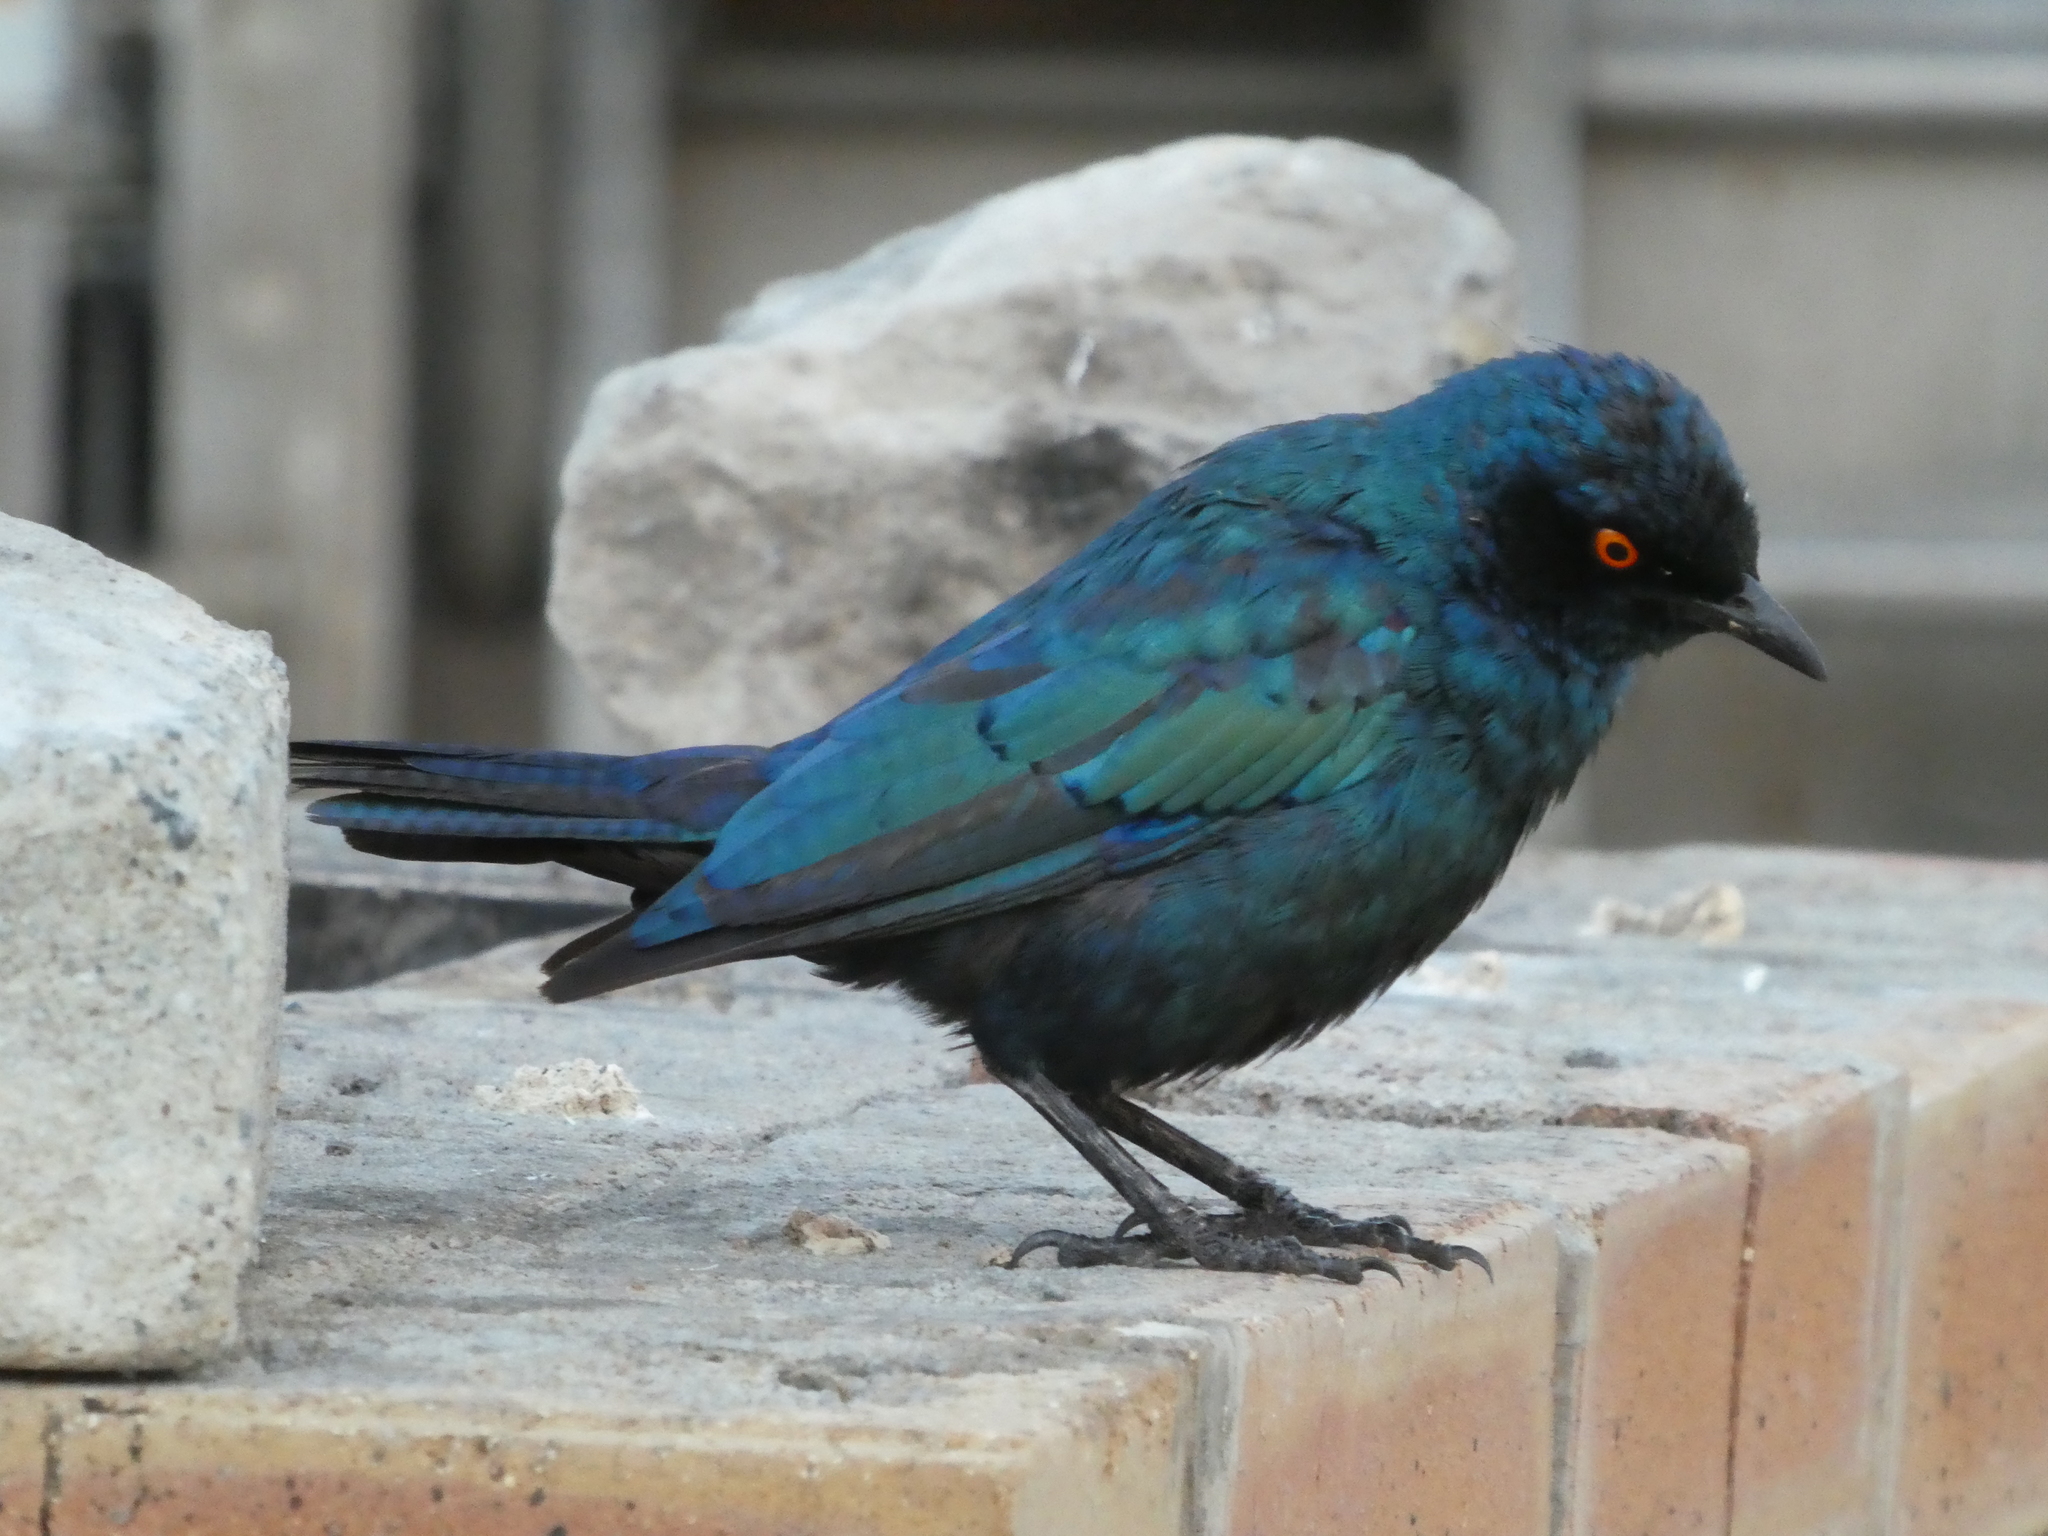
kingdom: Animalia
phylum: Chordata
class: Aves
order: Passeriformes
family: Sturnidae
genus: Lamprotornis
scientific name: Lamprotornis nitens
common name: Cape starling
